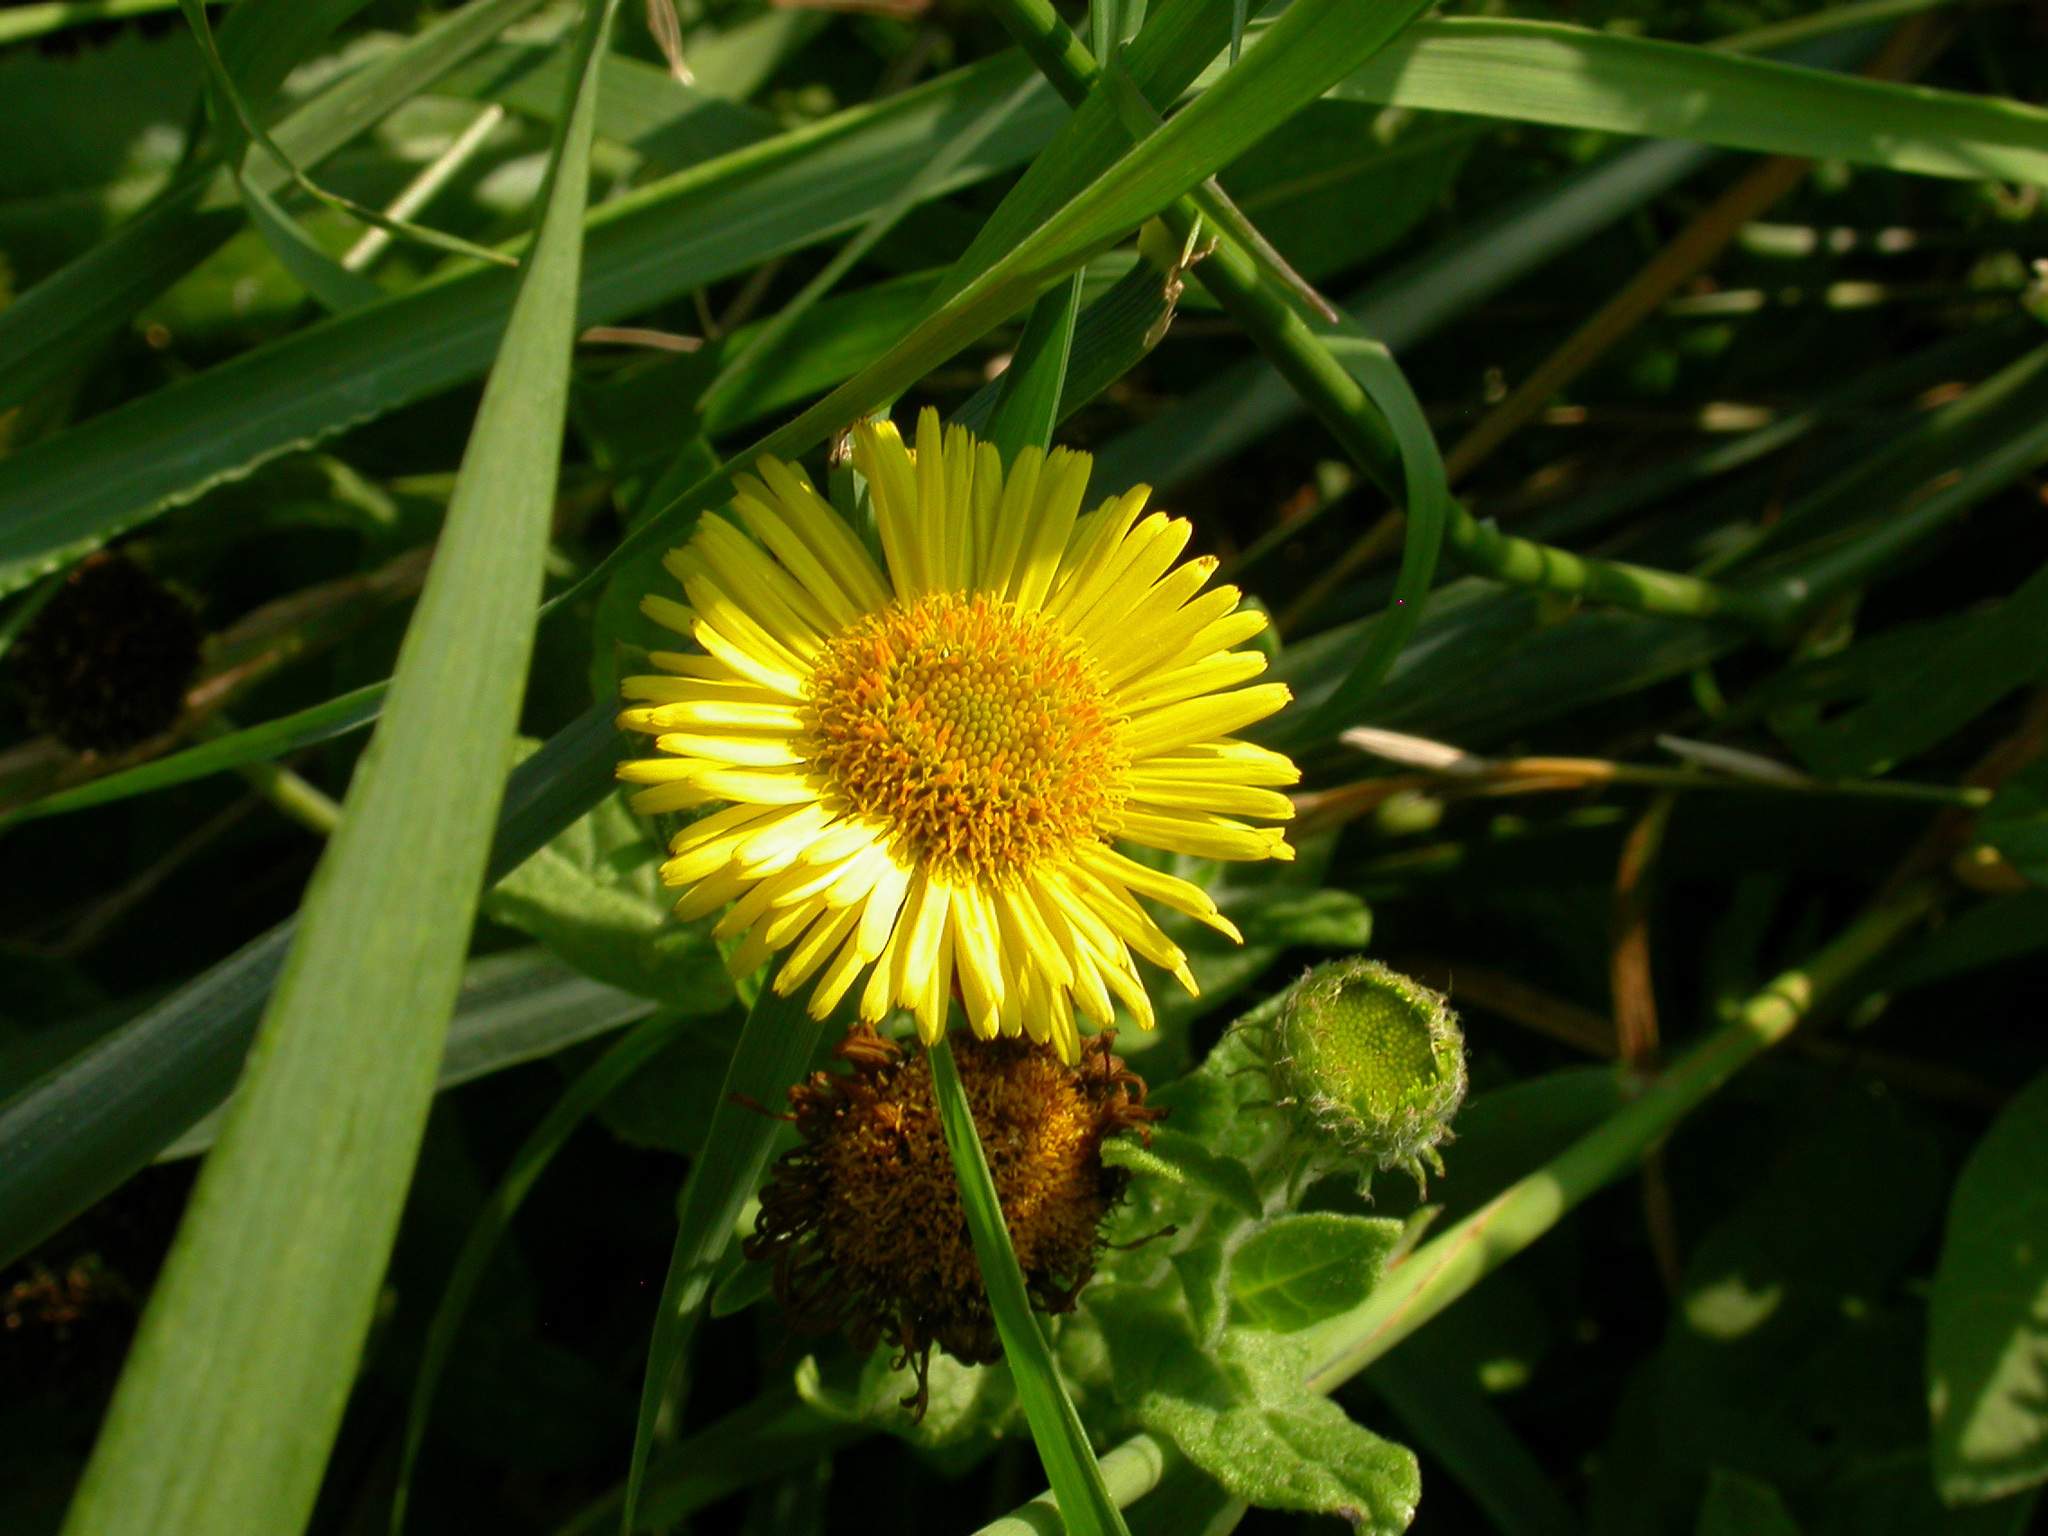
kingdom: Plantae
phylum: Tracheophyta
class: Magnoliopsida
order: Asterales
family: Asteraceae
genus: Pulicaria
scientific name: Pulicaria dysenterica
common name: Common fleabane
